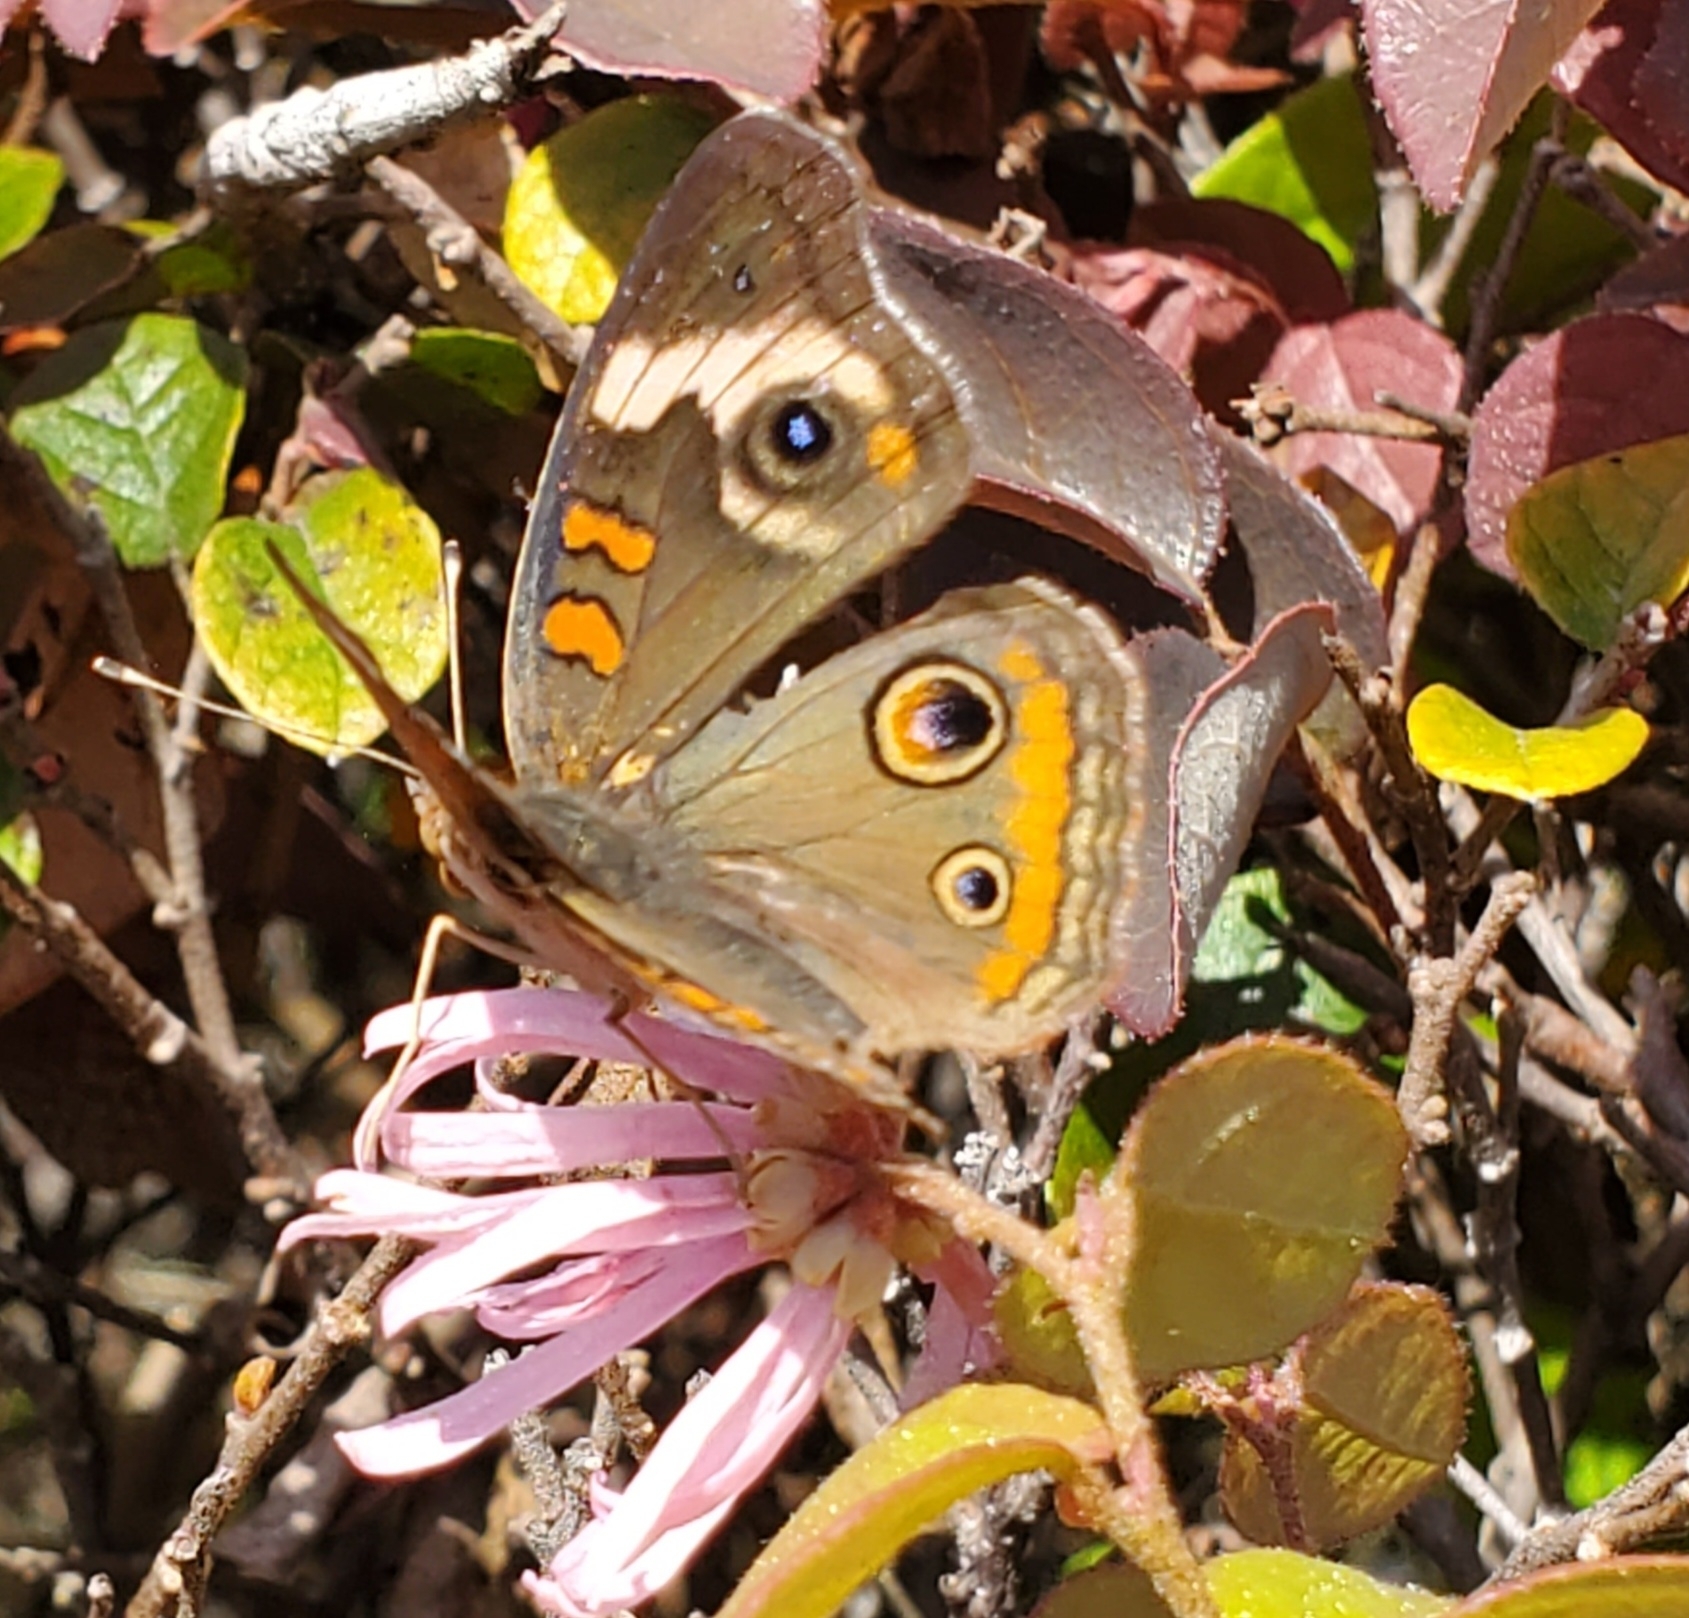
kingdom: Animalia
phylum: Arthropoda
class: Insecta
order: Lepidoptera
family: Nymphalidae
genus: Junonia
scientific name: Junonia coenia
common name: Common buckeye
